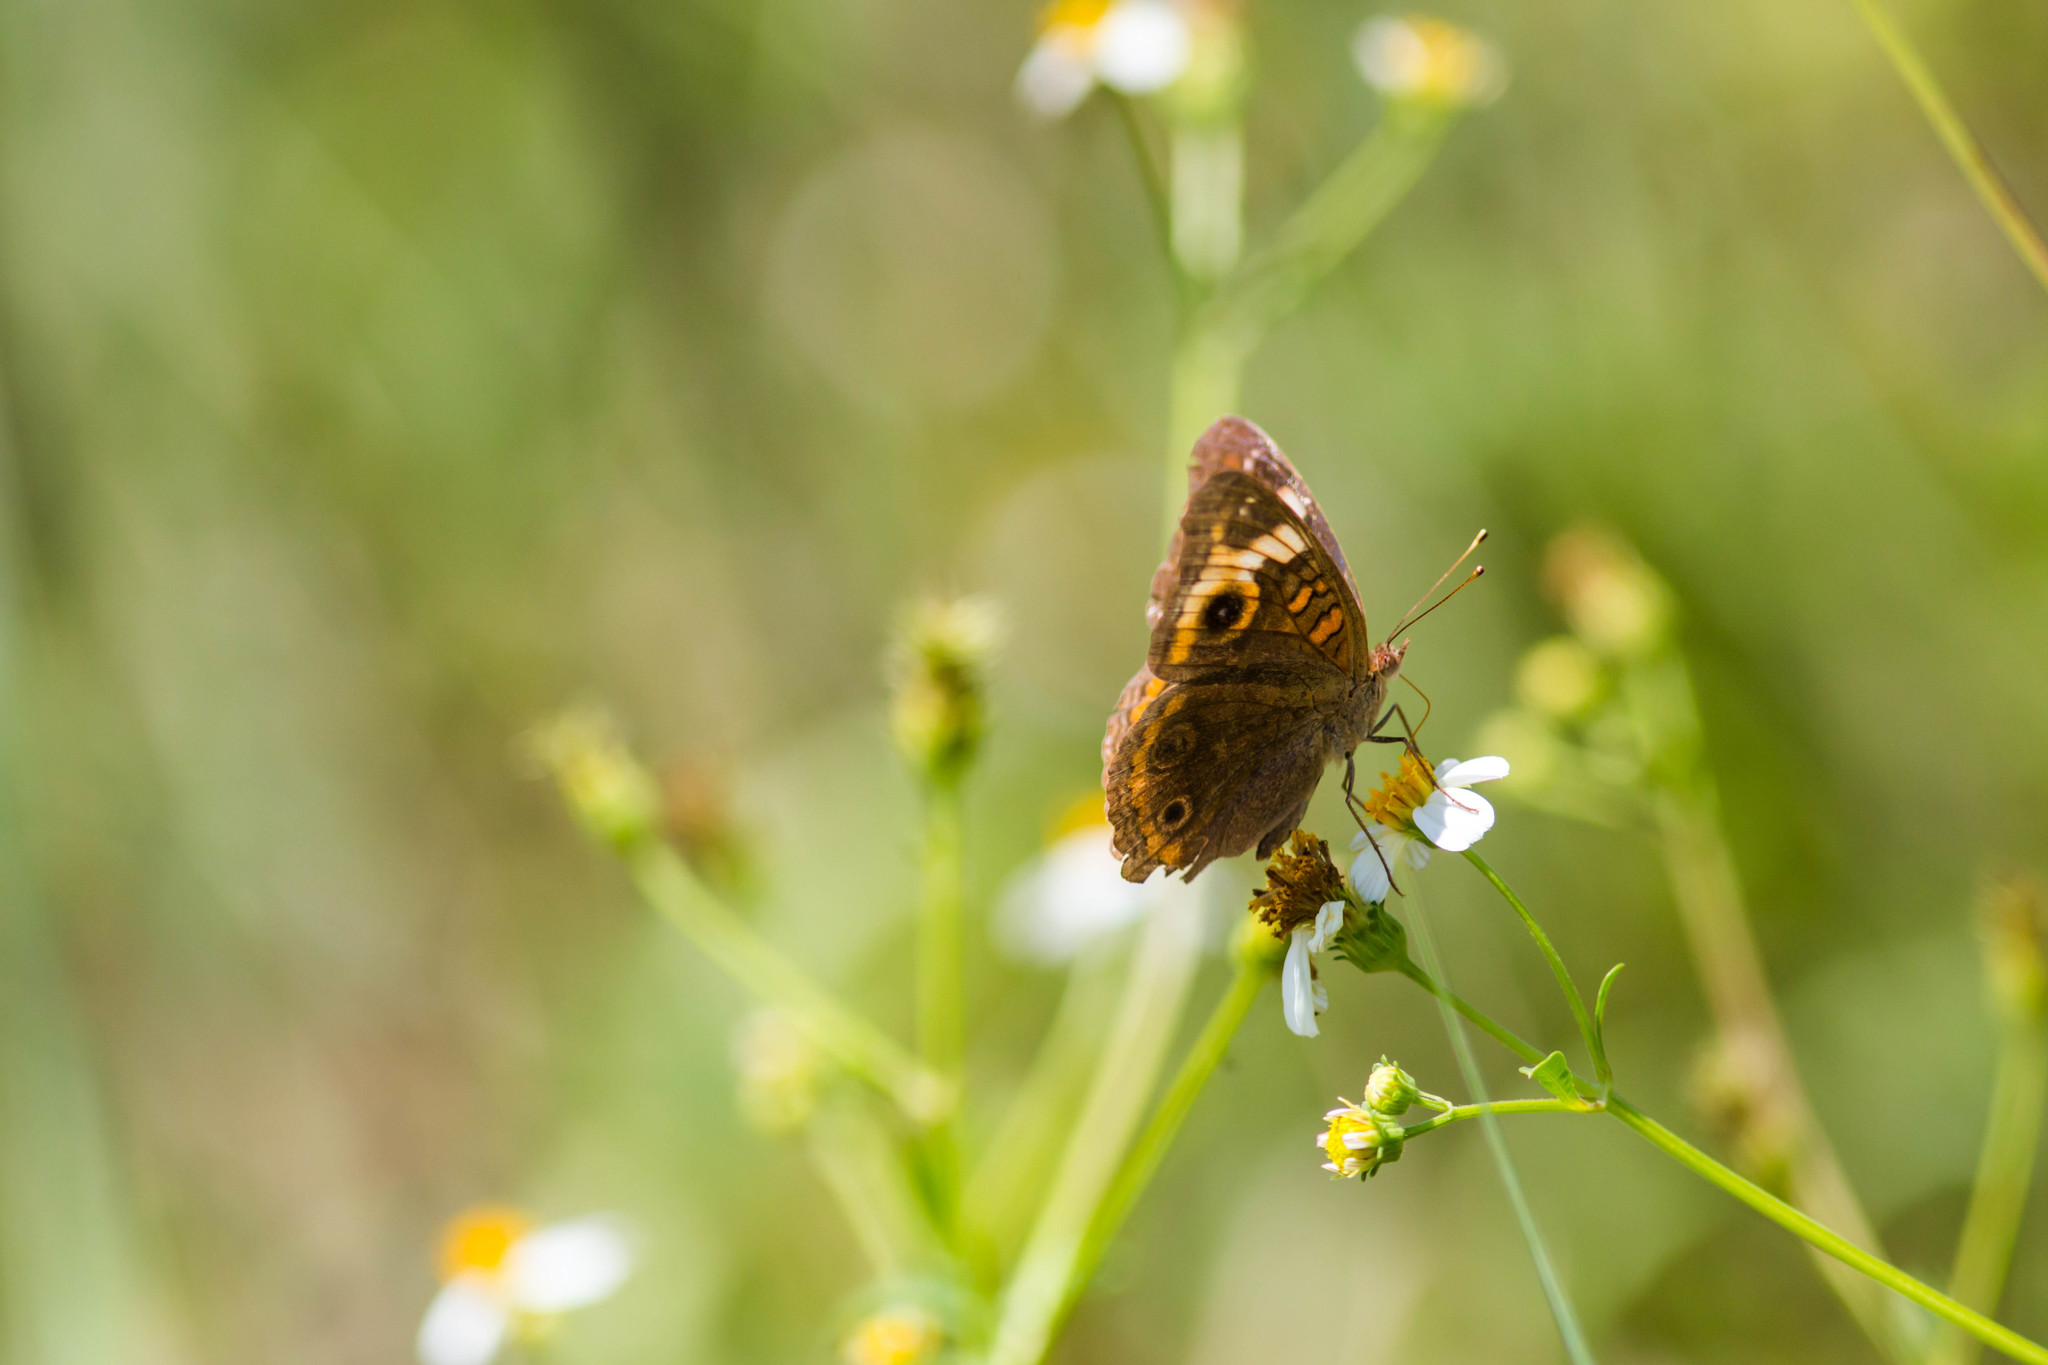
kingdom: Animalia
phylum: Arthropoda
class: Insecta
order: Lepidoptera
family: Nymphalidae
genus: Junonia
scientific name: Junonia neildi
